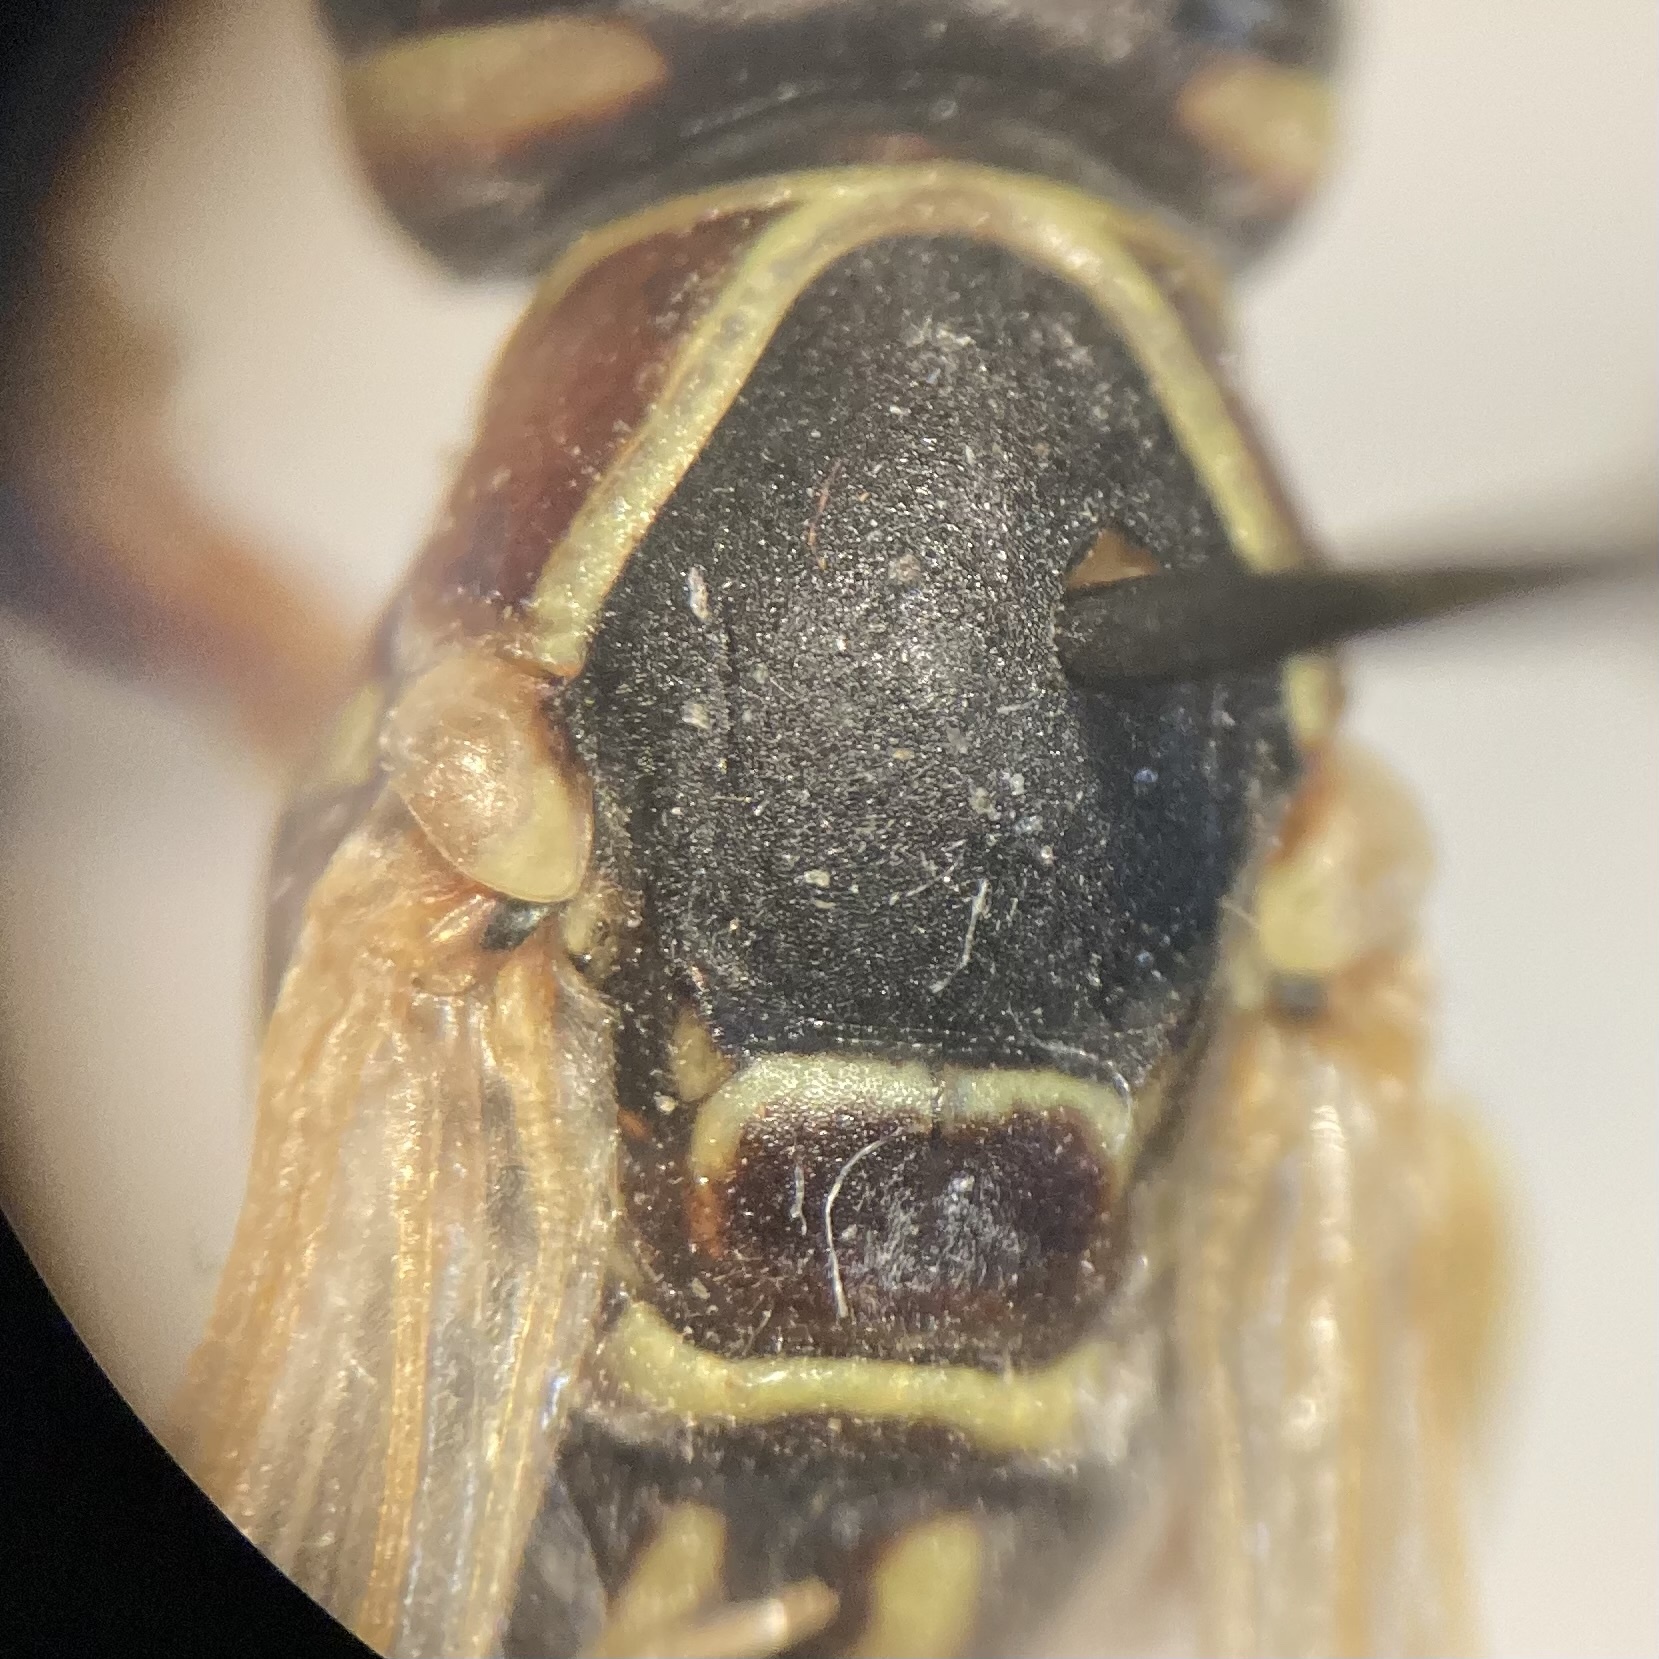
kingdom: Animalia
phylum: Arthropoda
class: Insecta
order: Hymenoptera
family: Eumenidae
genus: Polistes
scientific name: Polistes fuscatus
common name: Dark paper wasp
